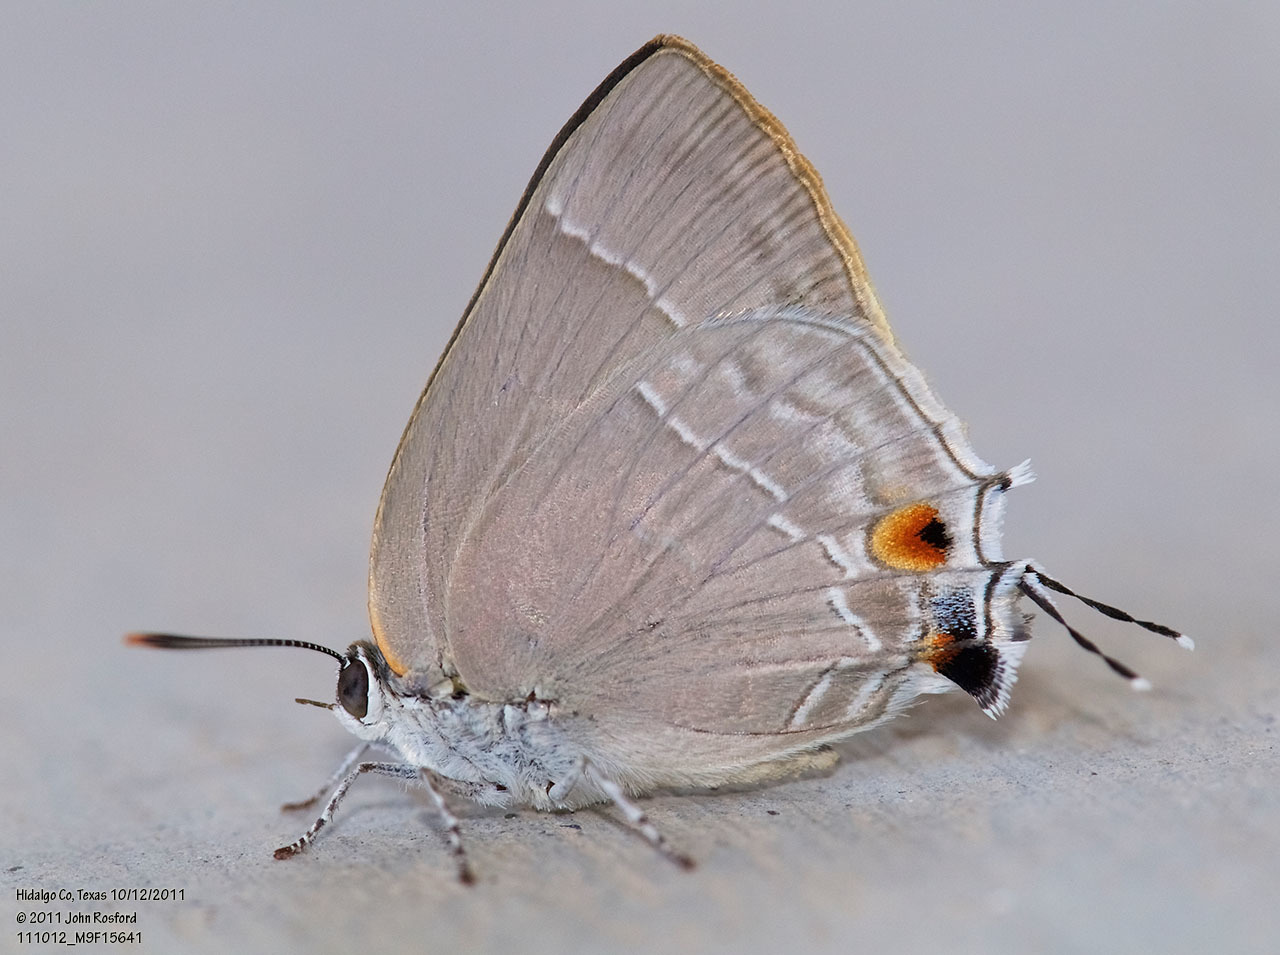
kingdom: Animalia
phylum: Arthropoda
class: Insecta
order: Lepidoptera
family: Lycaenidae
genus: Thecla
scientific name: Thecla marius
